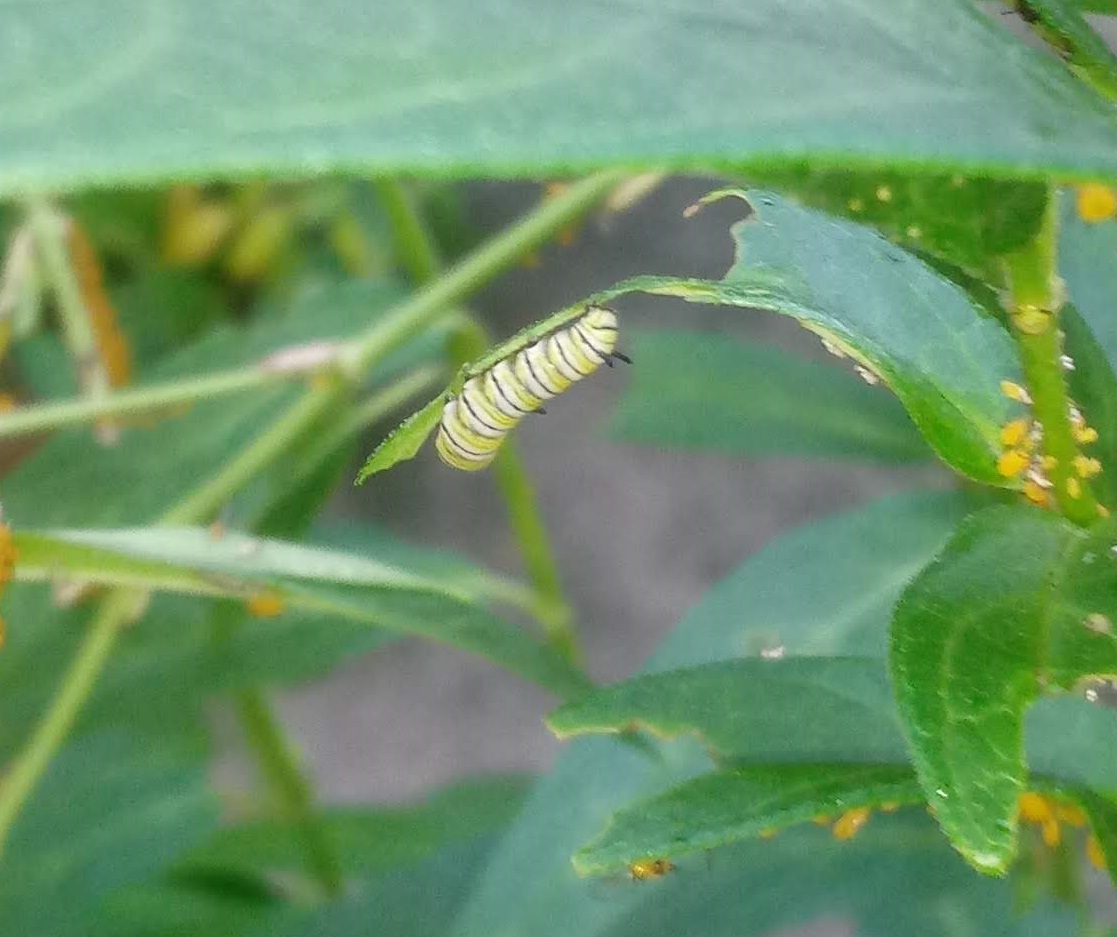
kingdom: Animalia
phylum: Arthropoda
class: Insecta
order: Lepidoptera
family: Nymphalidae
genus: Danaus
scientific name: Danaus plexippus
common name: Monarch
